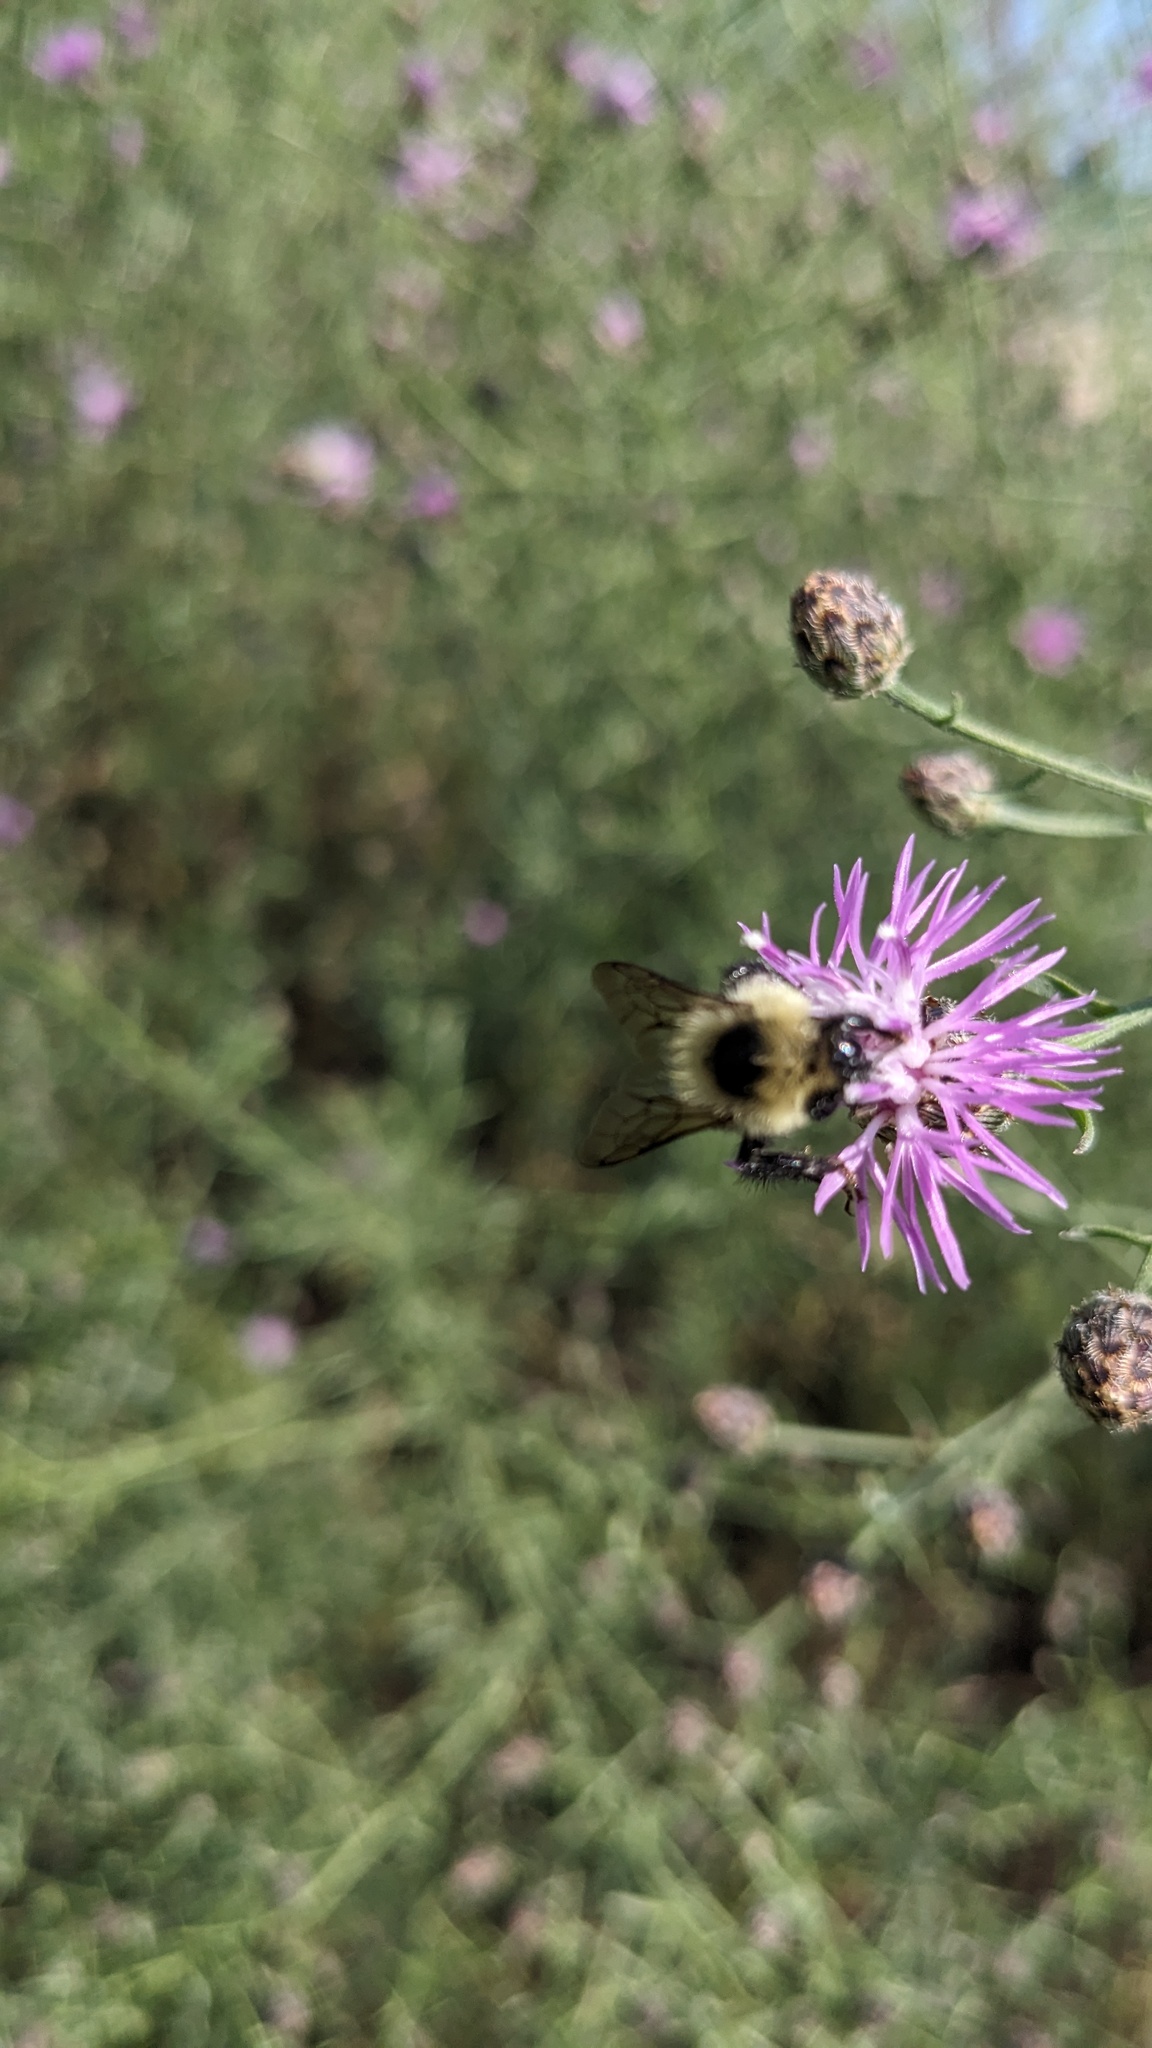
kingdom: Animalia
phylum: Arthropoda
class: Insecta
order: Hymenoptera
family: Apidae
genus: Bombus
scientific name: Bombus rufocinctus
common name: Red-belted bumble bee
